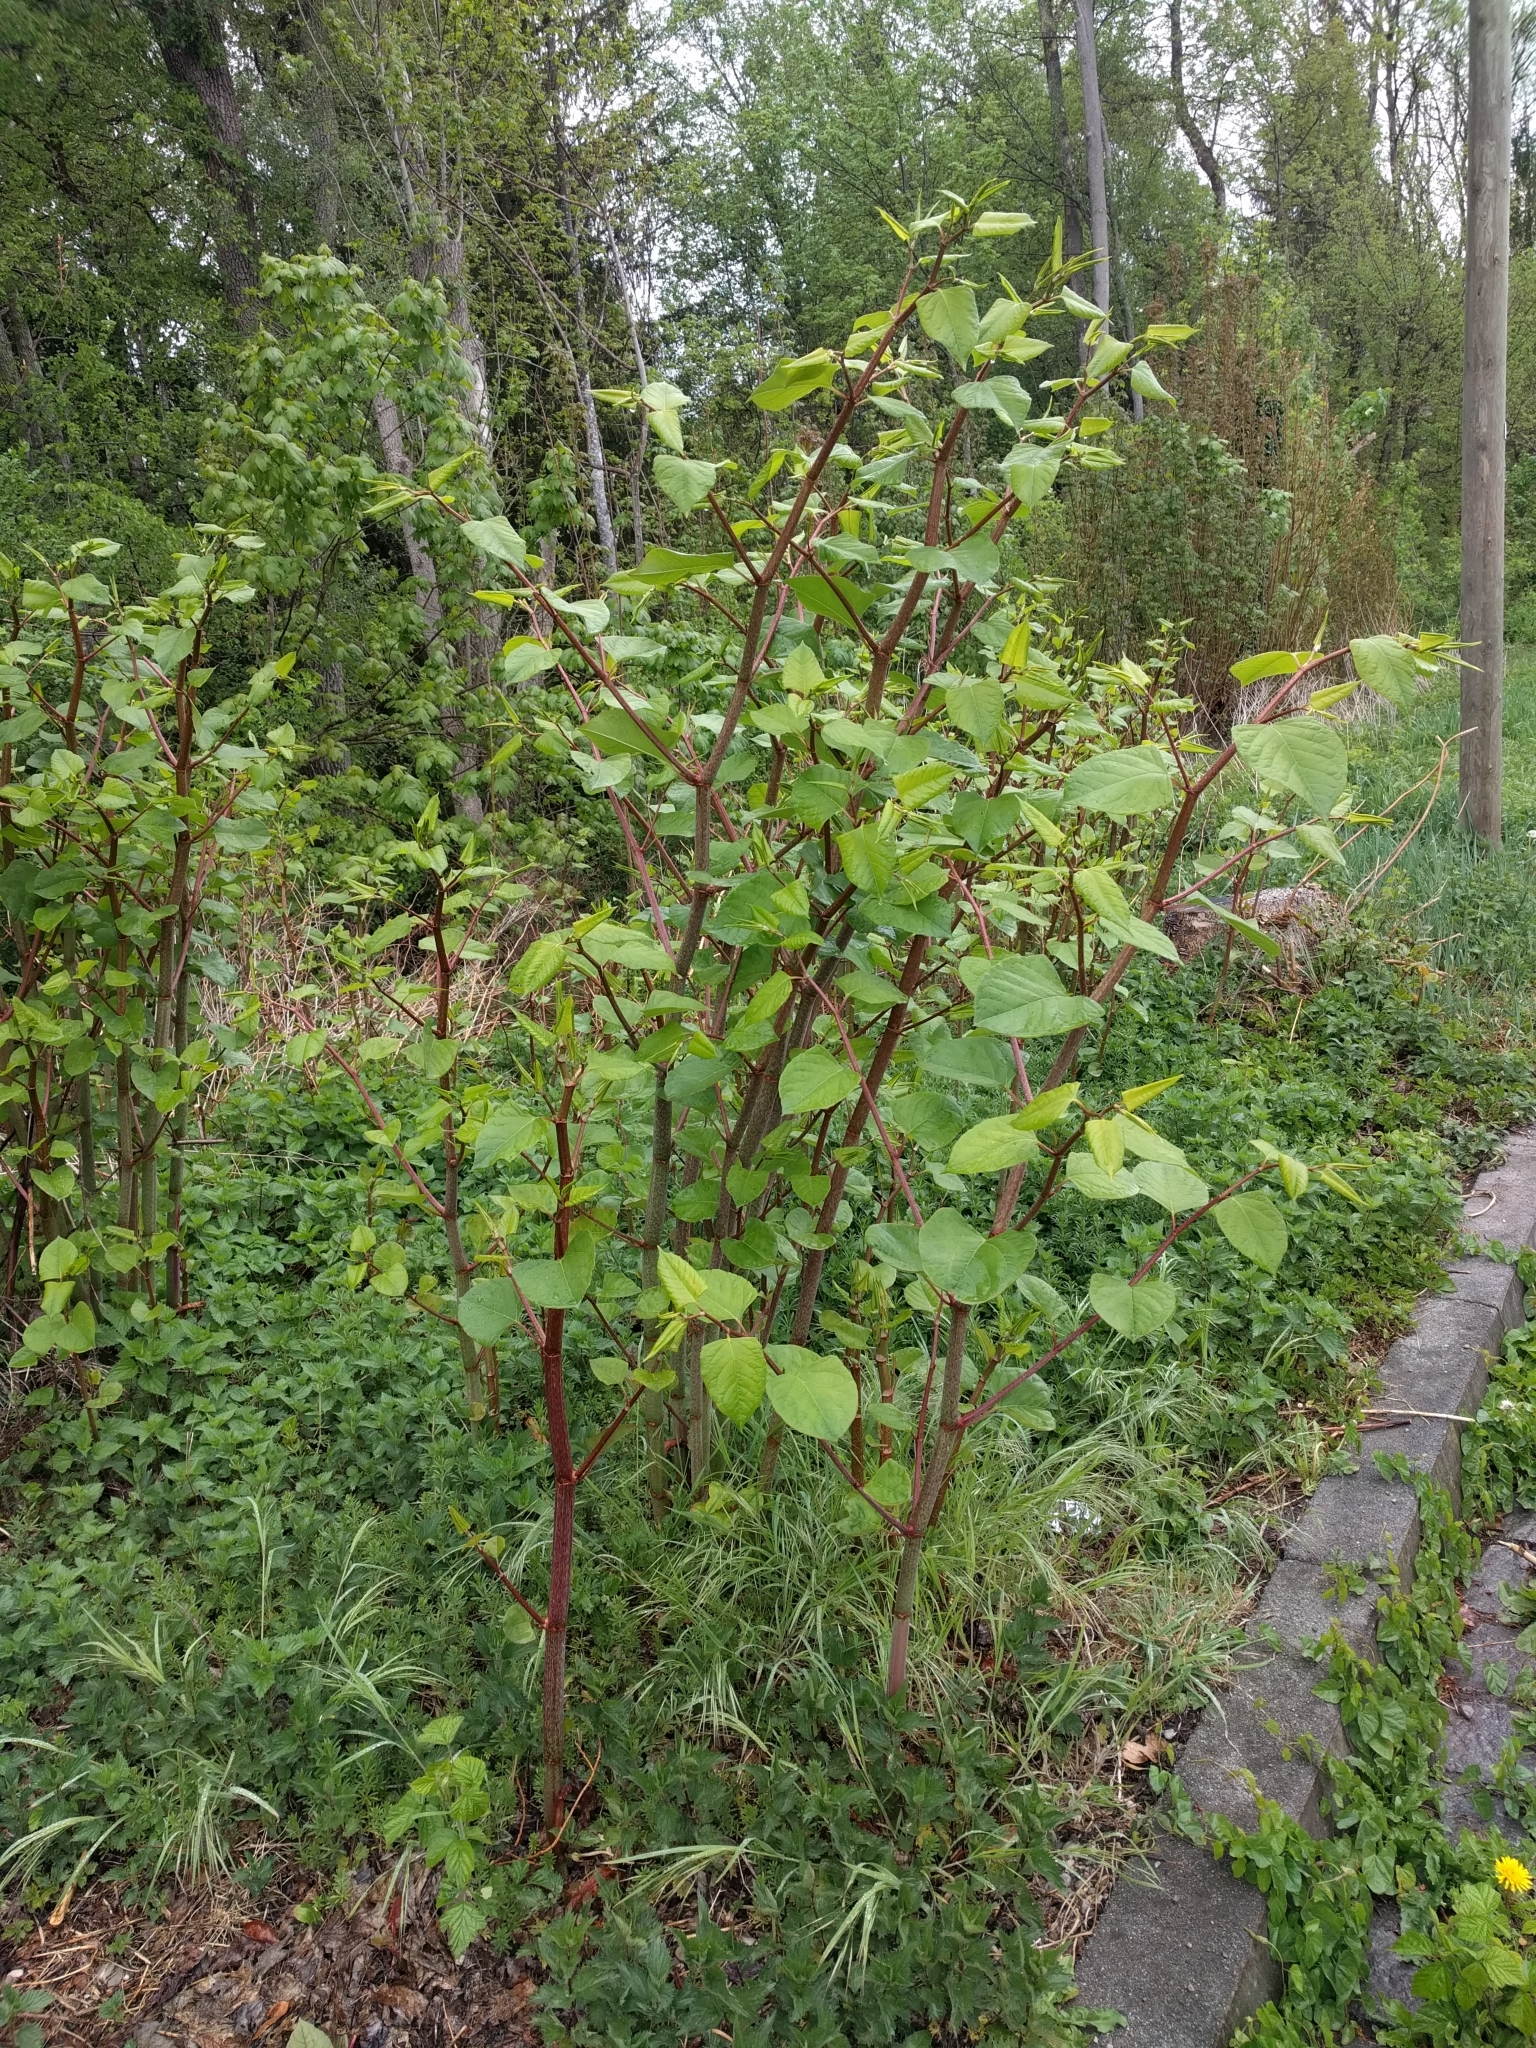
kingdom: Plantae
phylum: Tracheophyta
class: Magnoliopsida
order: Caryophyllales
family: Polygonaceae
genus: Reynoutria
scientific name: Reynoutria japonica
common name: Japanese knotweed
